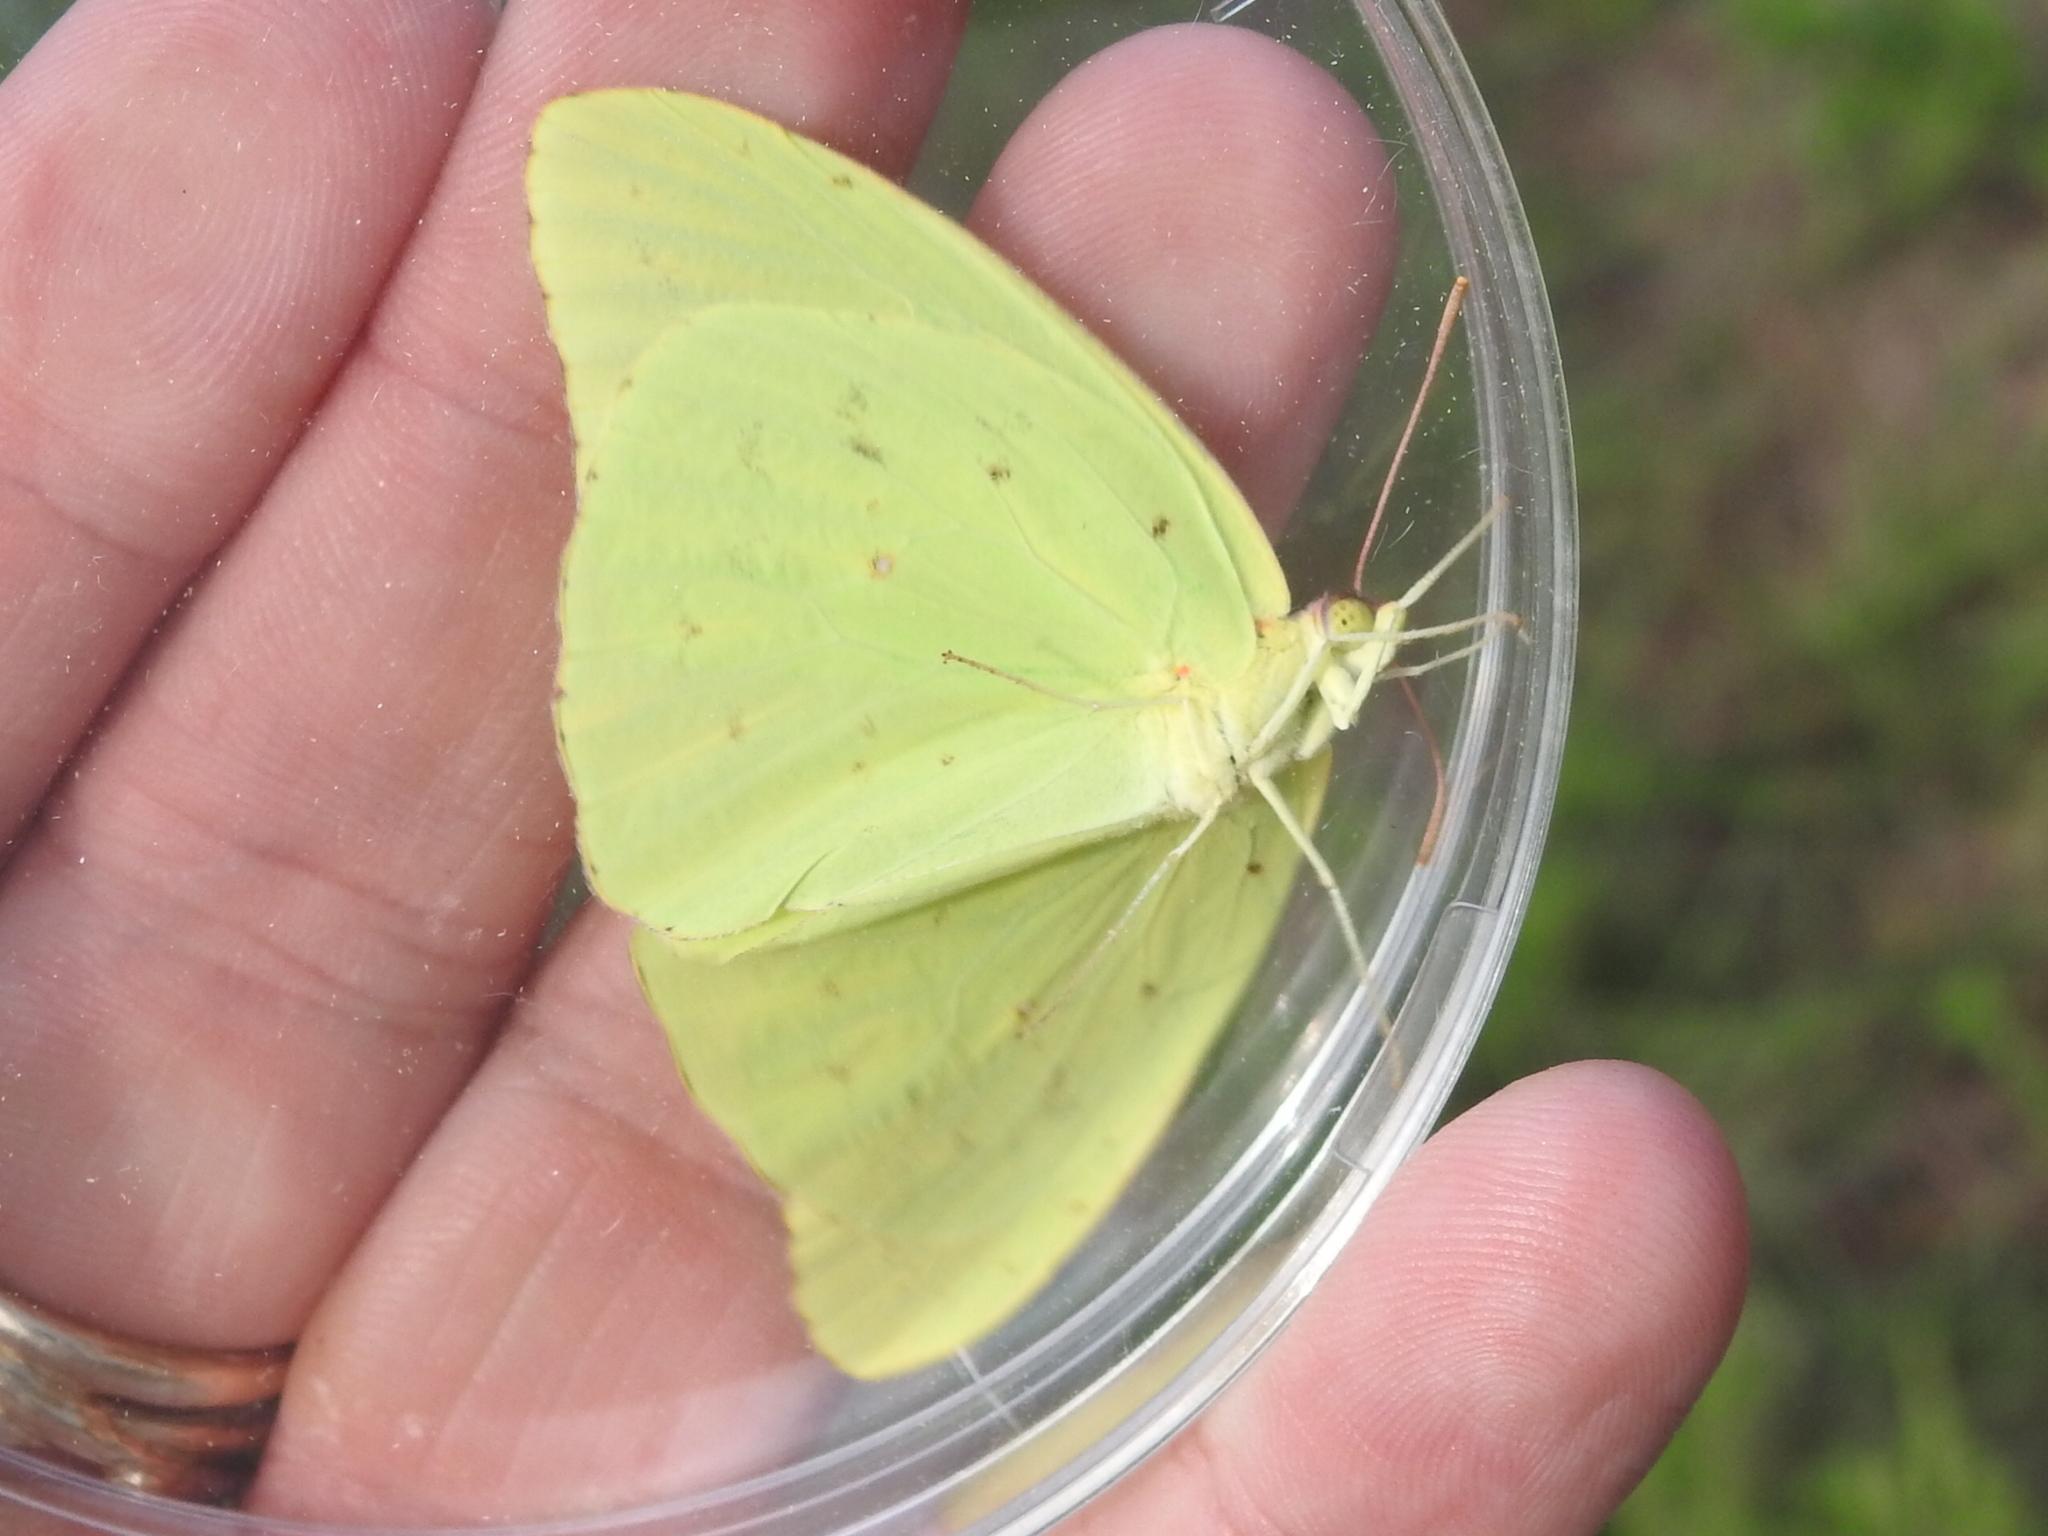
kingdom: Animalia
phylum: Arthropoda
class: Insecta
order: Lepidoptera
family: Pieridae
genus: Phoebis
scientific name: Phoebis sennae
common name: Cloudless sulphur
